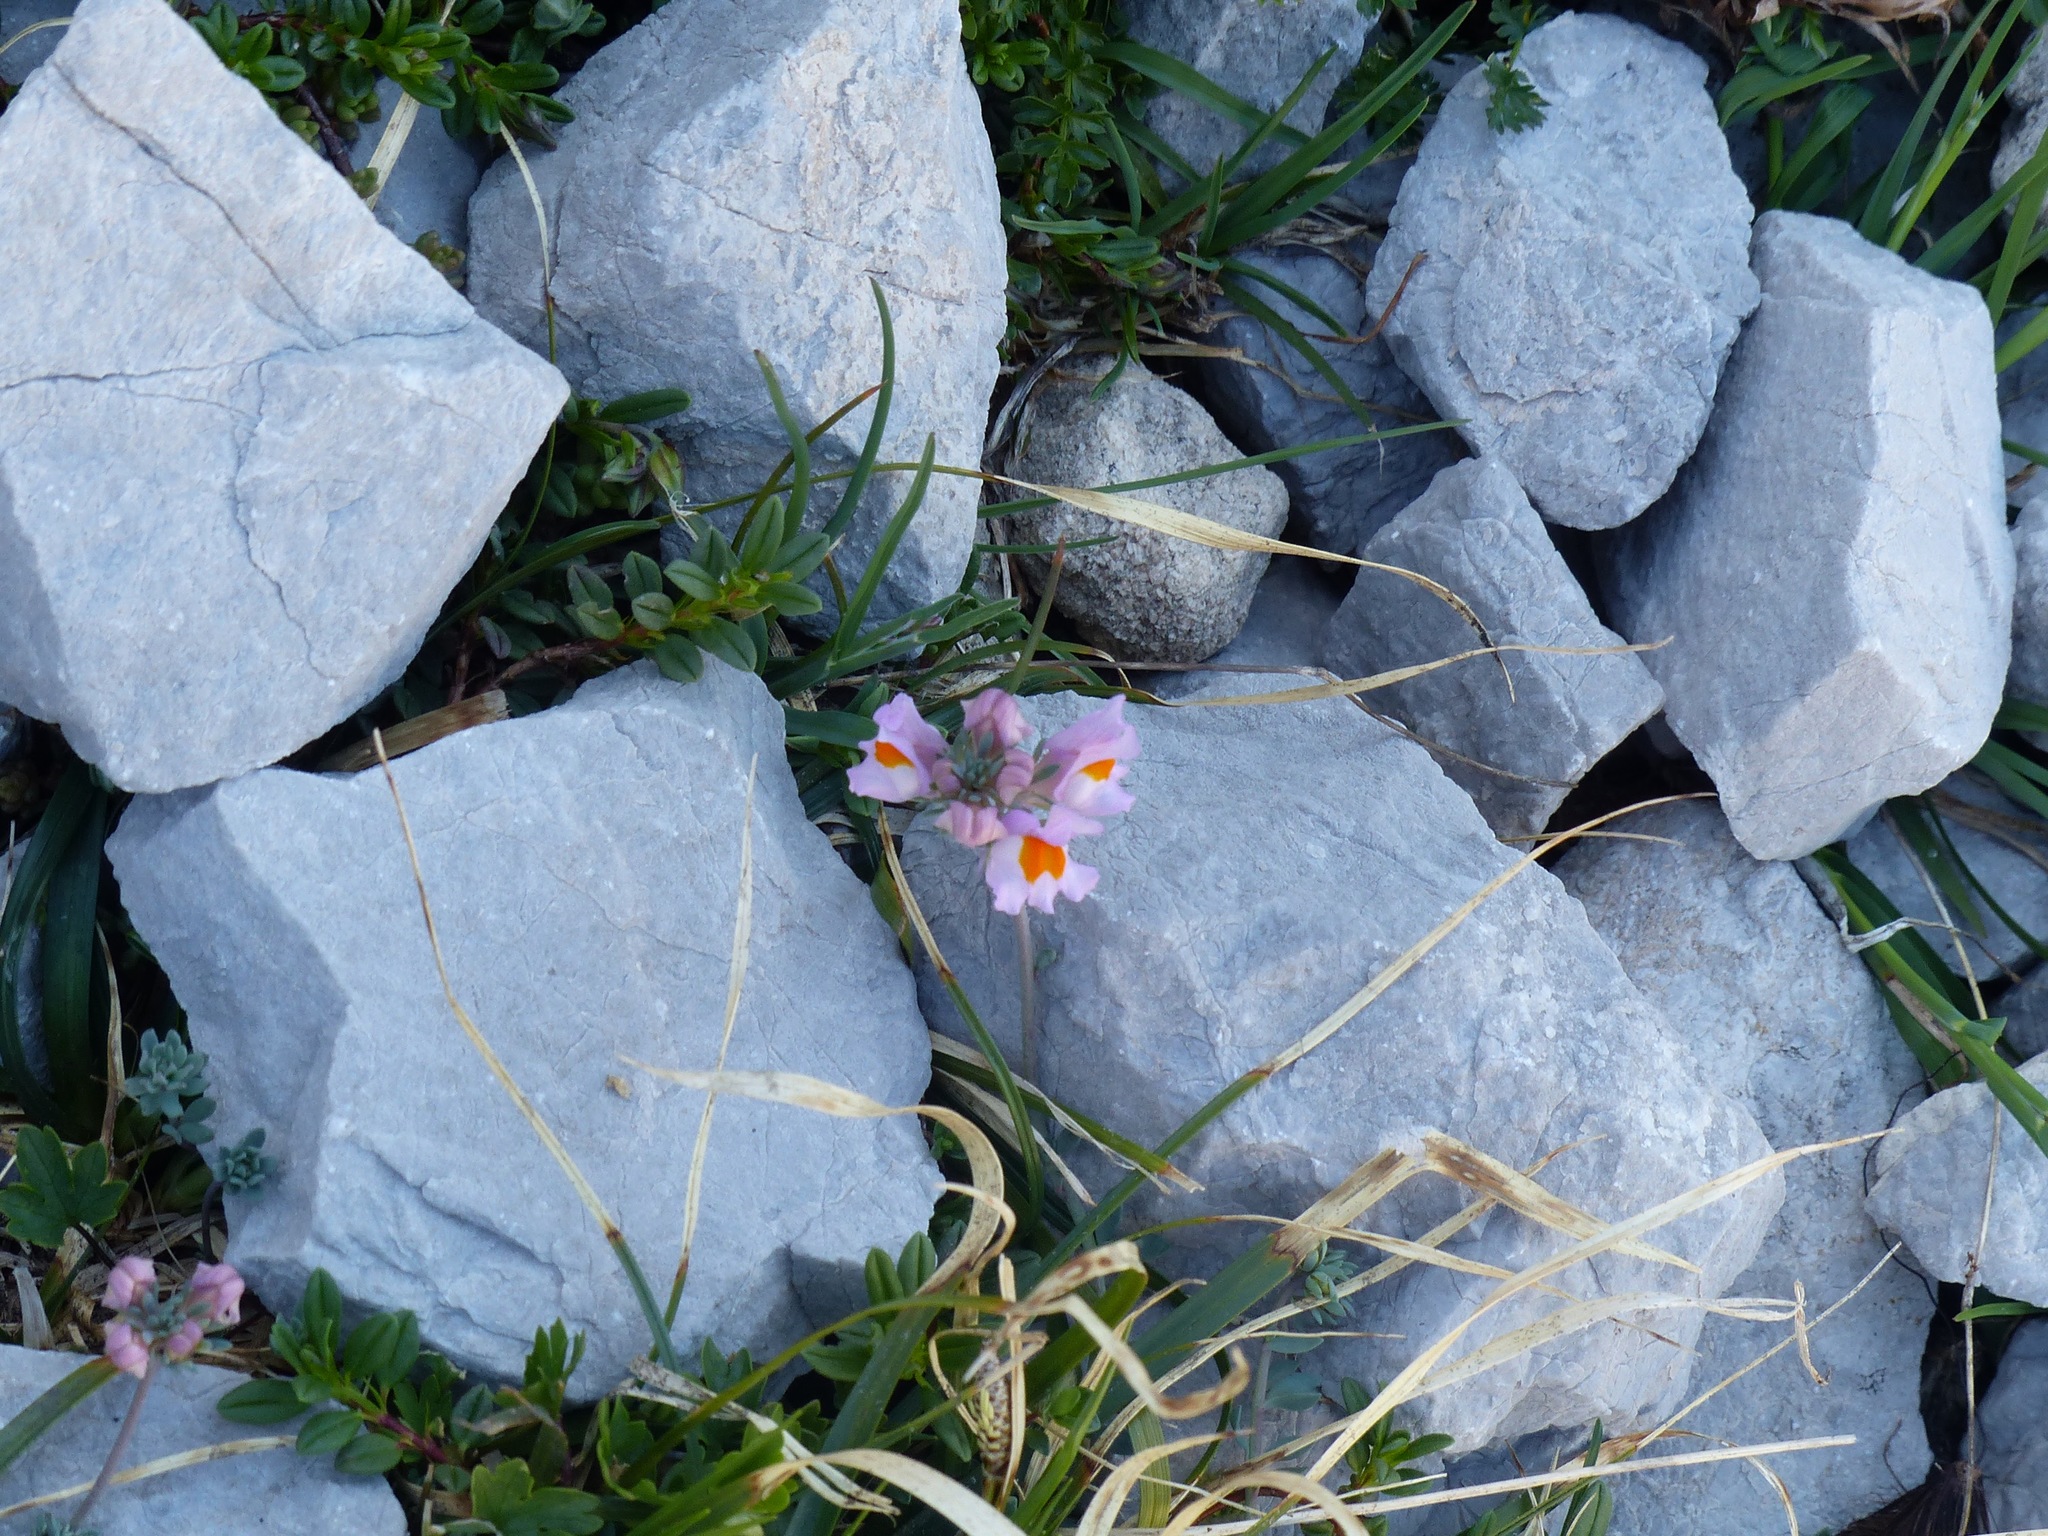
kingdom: Plantae
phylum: Tracheophyta
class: Magnoliopsida
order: Lamiales
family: Plantaginaceae
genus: Linaria
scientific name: Linaria alpina
